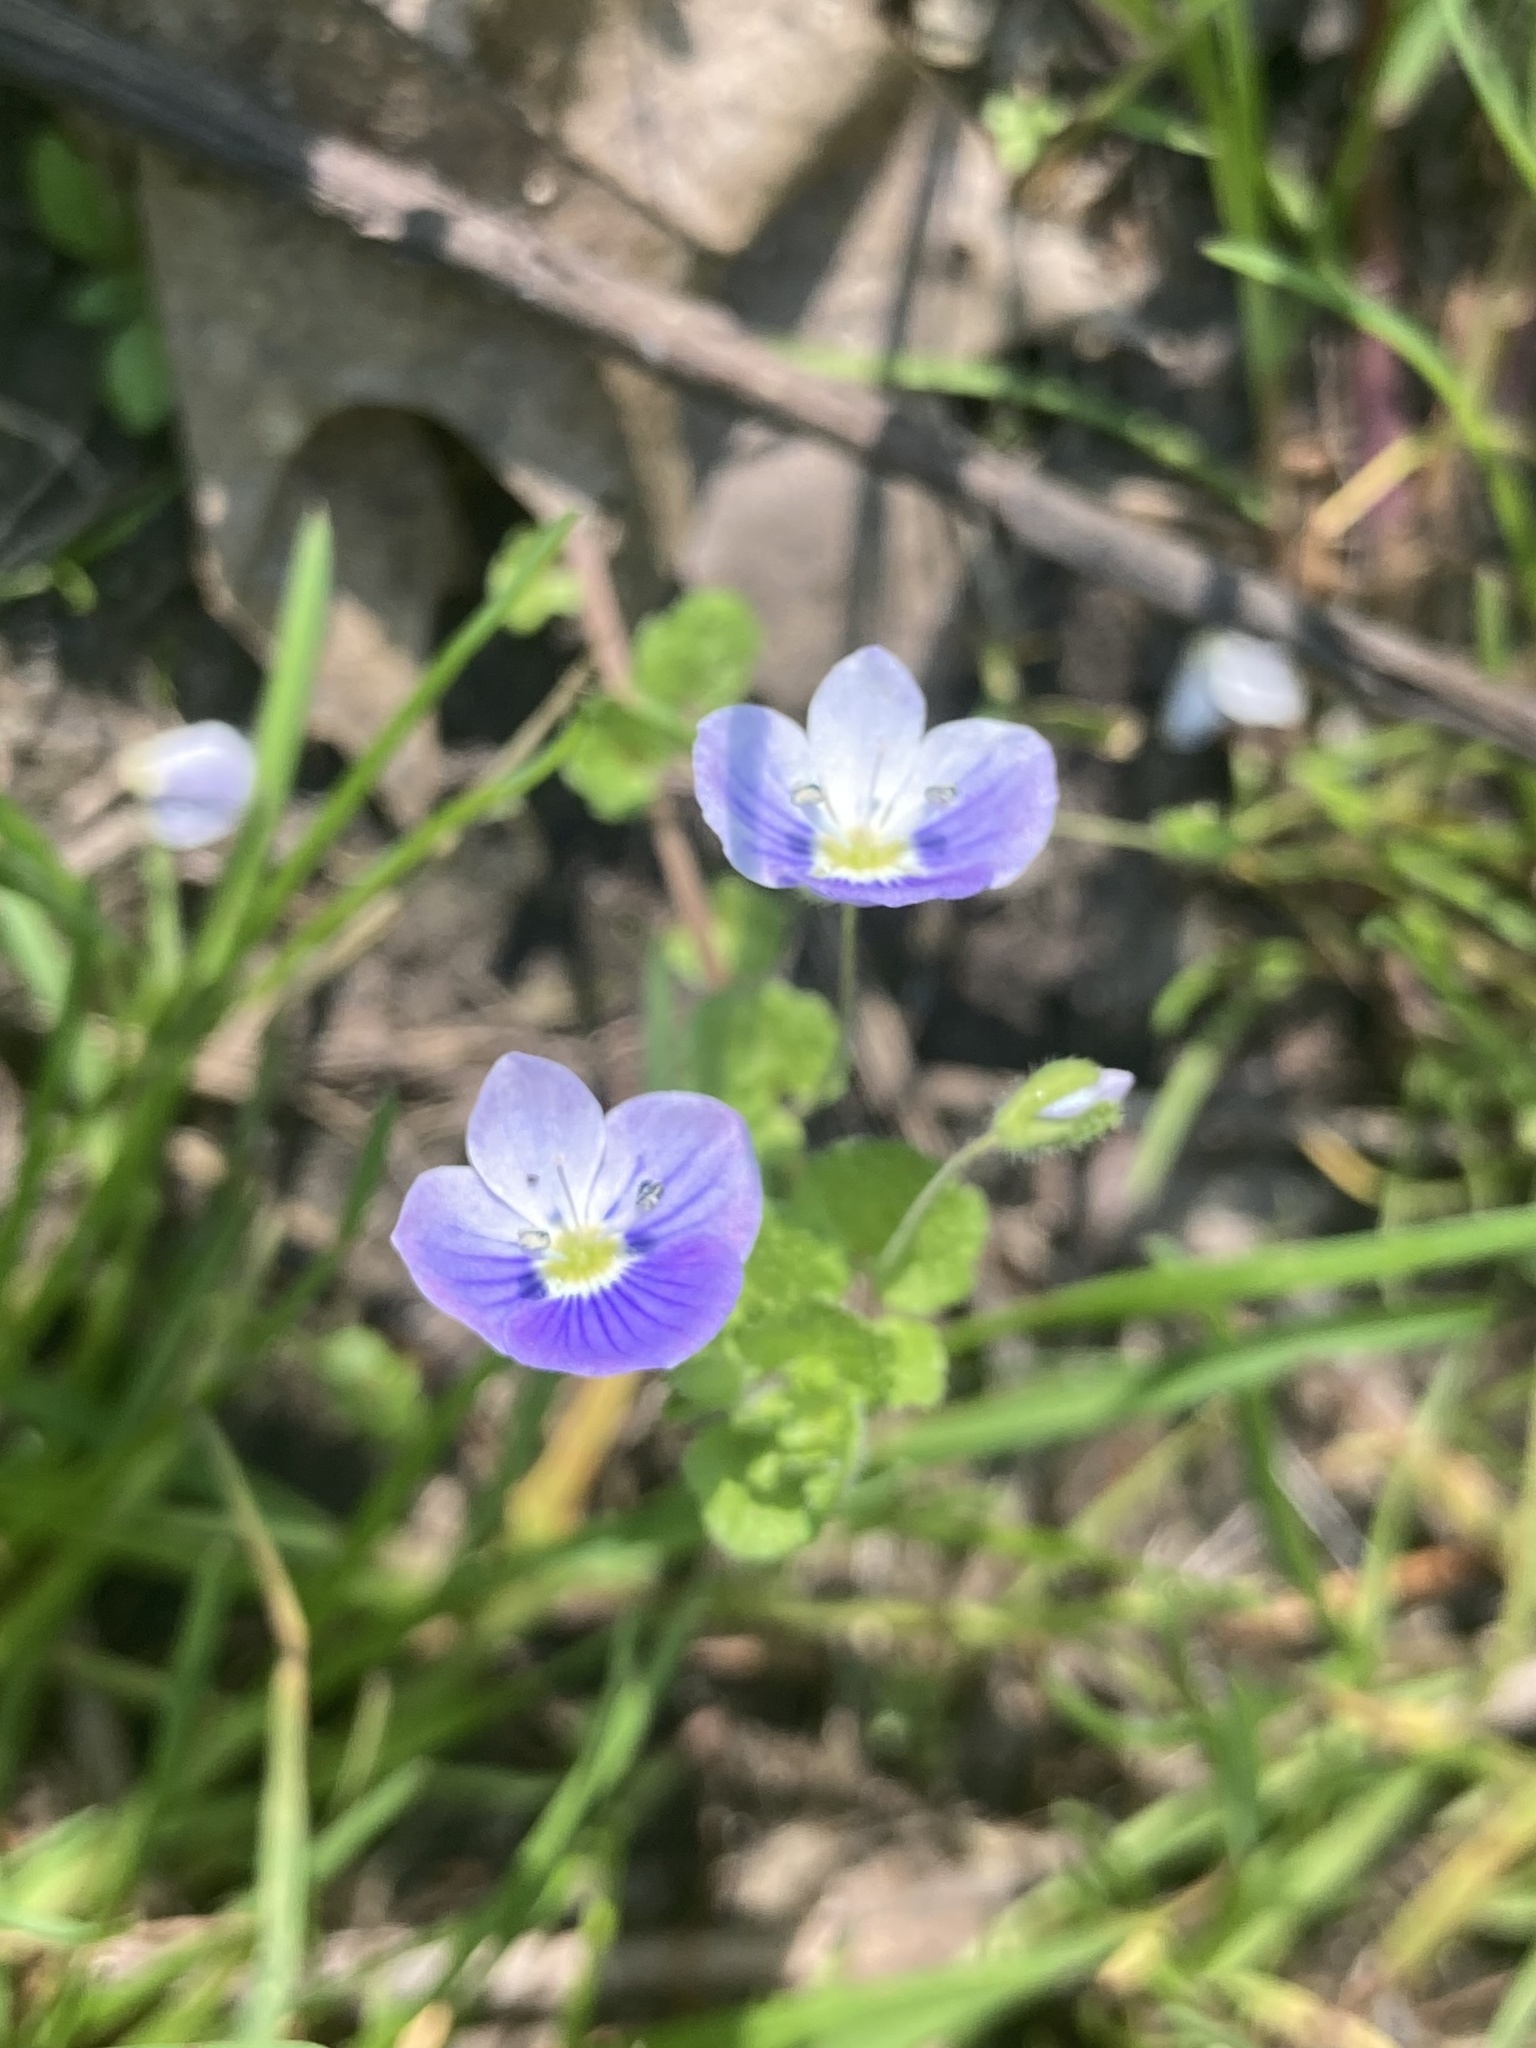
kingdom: Plantae
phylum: Tracheophyta
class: Magnoliopsida
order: Lamiales
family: Plantaginaceae
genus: Veronica
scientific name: Veronica filiformis
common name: Slender speedwell
